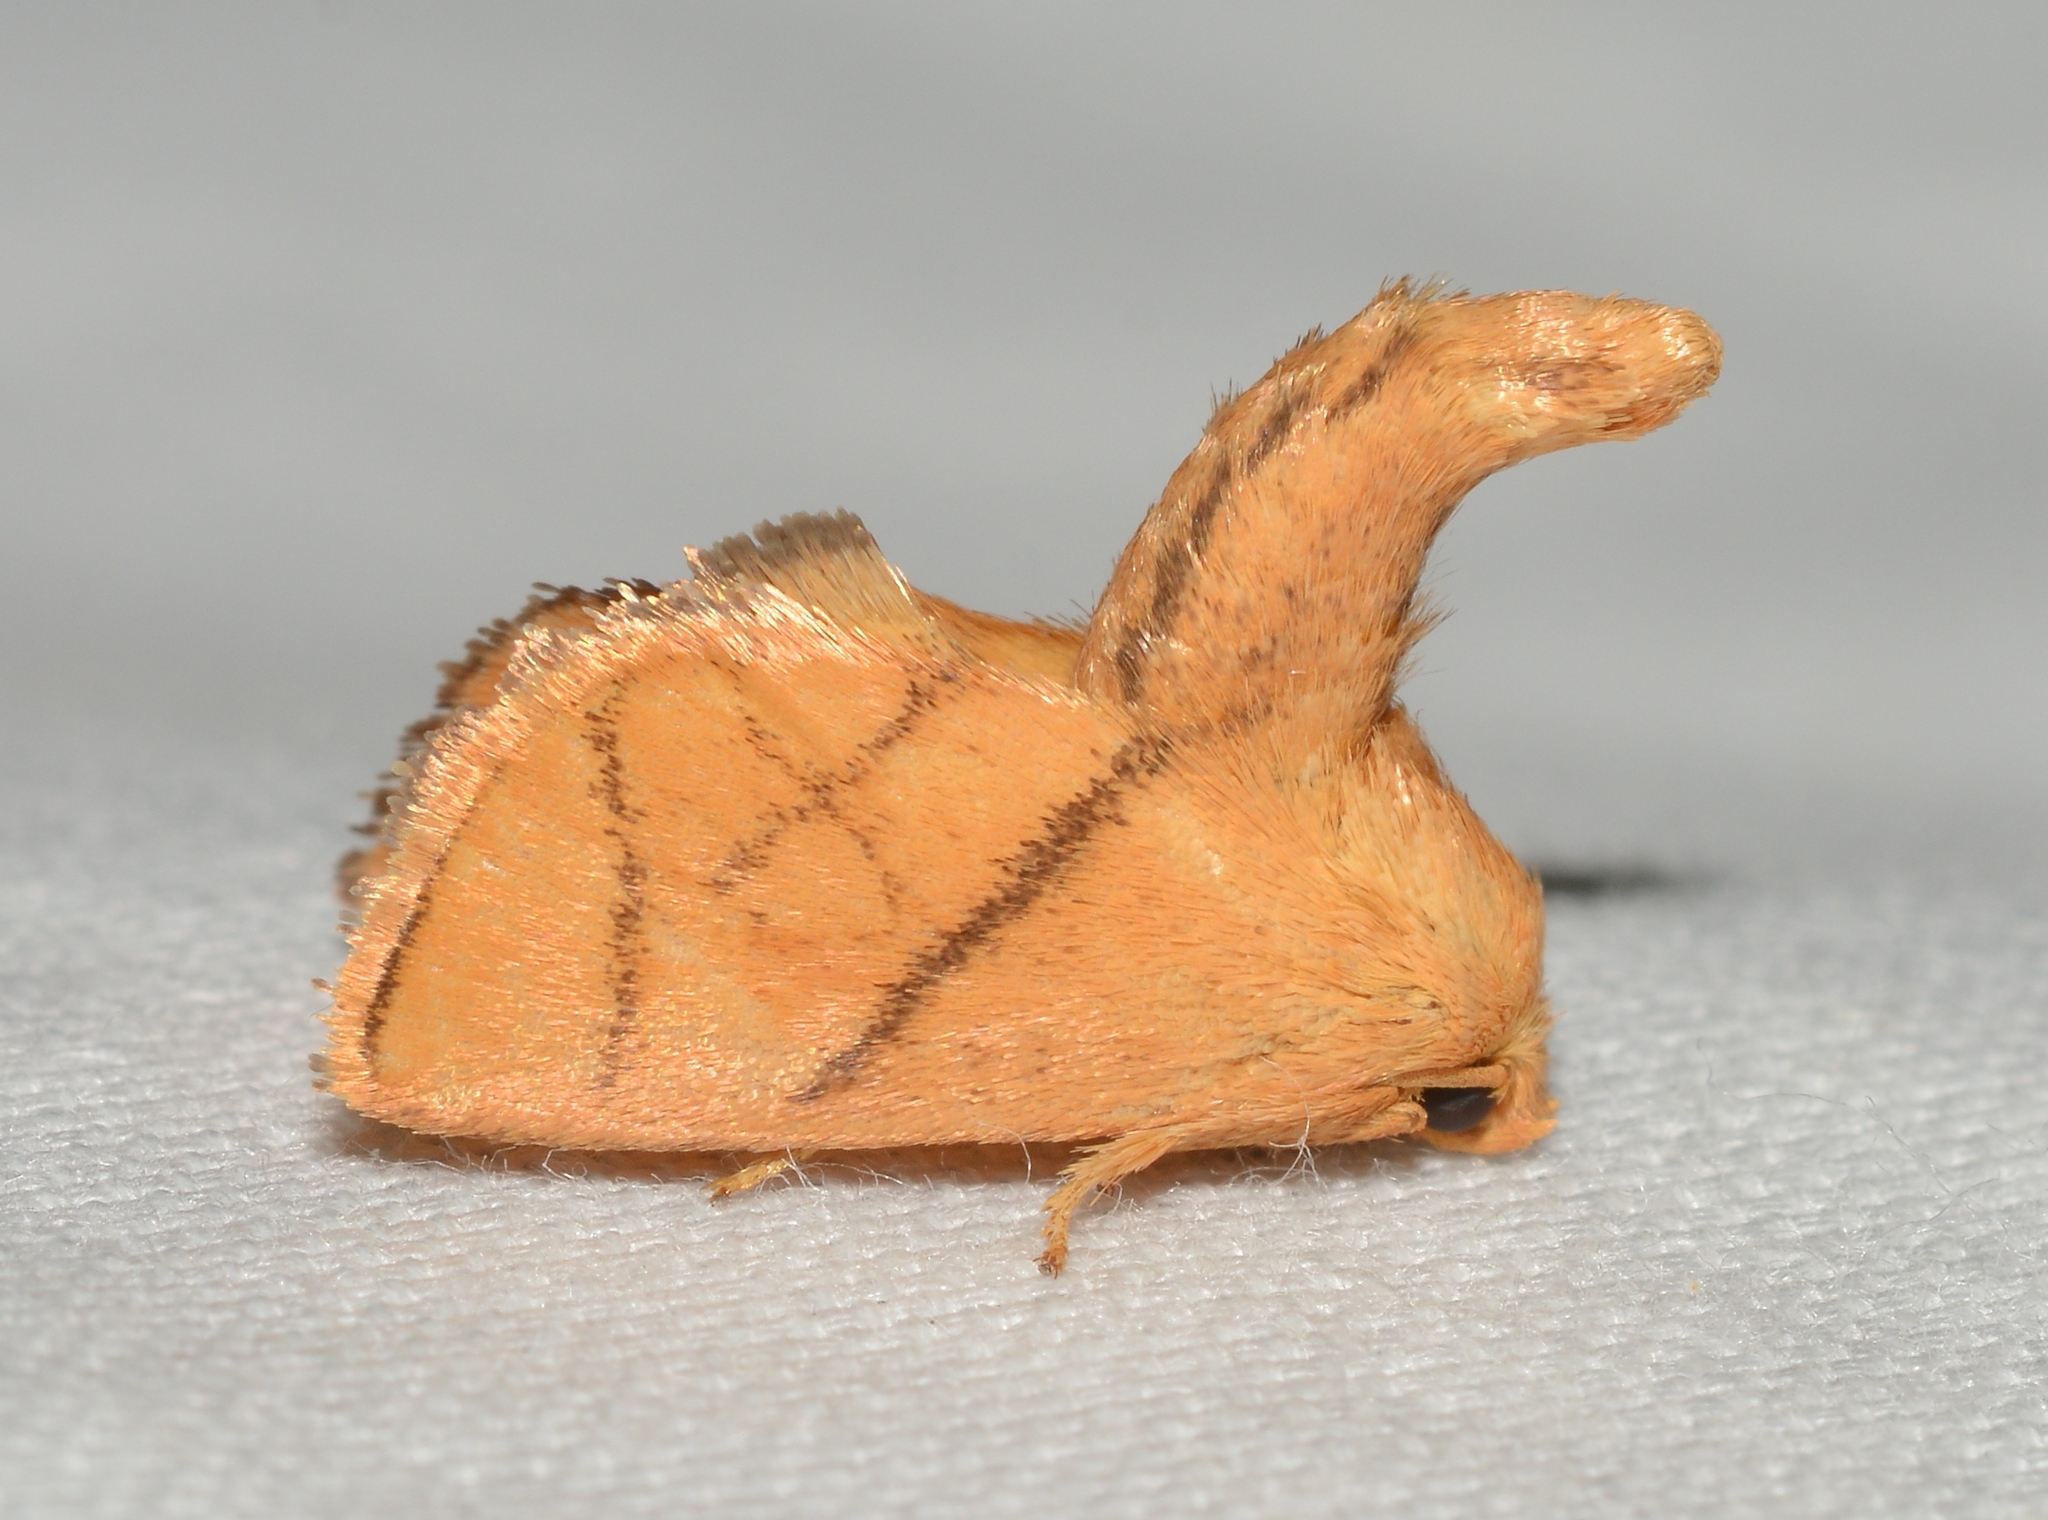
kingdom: Animalia
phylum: Arthropoda
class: Insecta
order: Lepidoptera
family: Limacodidae
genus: Apoda
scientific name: Apoda y-inversa
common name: Yellow-collared slug moth
